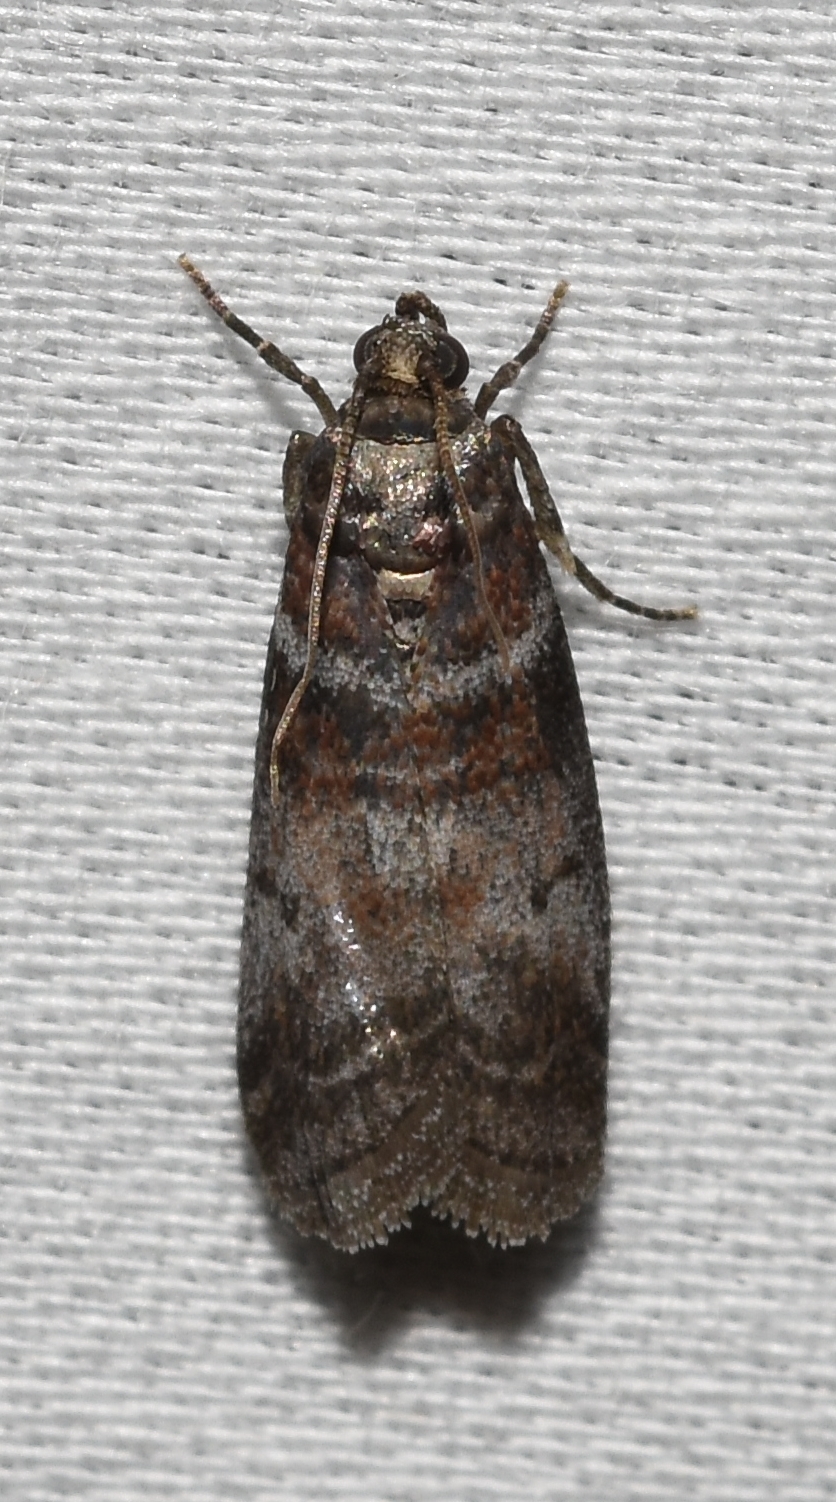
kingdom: Animalia
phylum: Arthropoda
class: Insecta
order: Lepidoptera
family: Pyralidae
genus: Sciota
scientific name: Sciota uvinella
